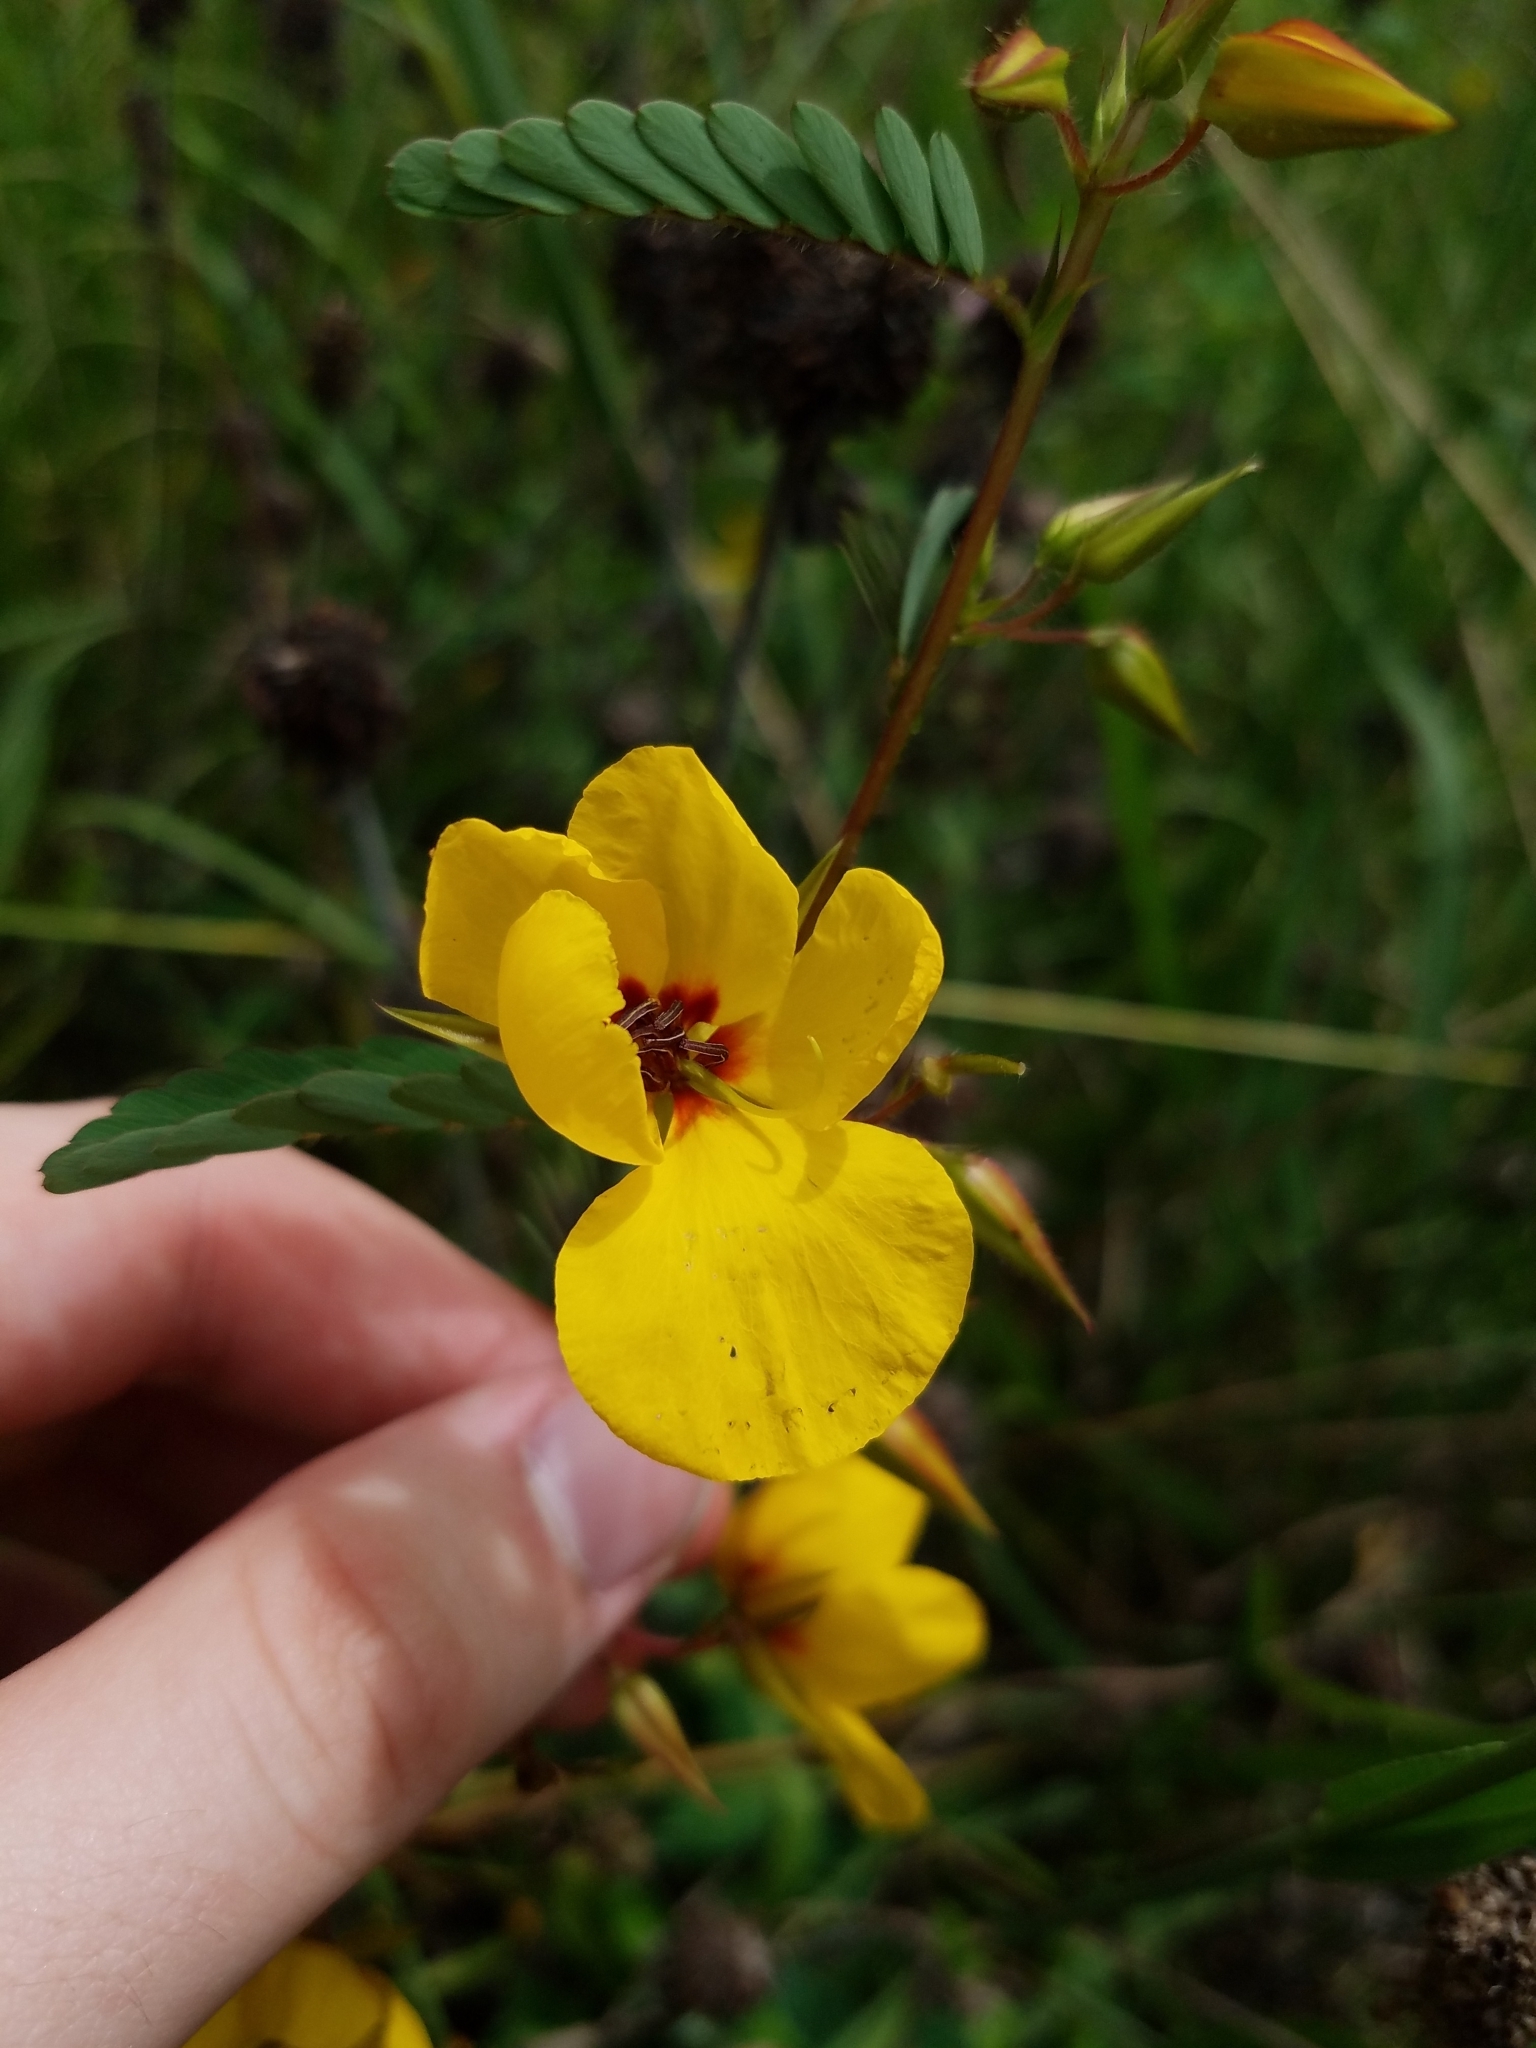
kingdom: Plantae
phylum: Tracheophyta
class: Magnoliopsida
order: Fabales
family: Fabaceae
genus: Chamaecrista
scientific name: Chamaecrista fasciculata
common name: Golden cassia
